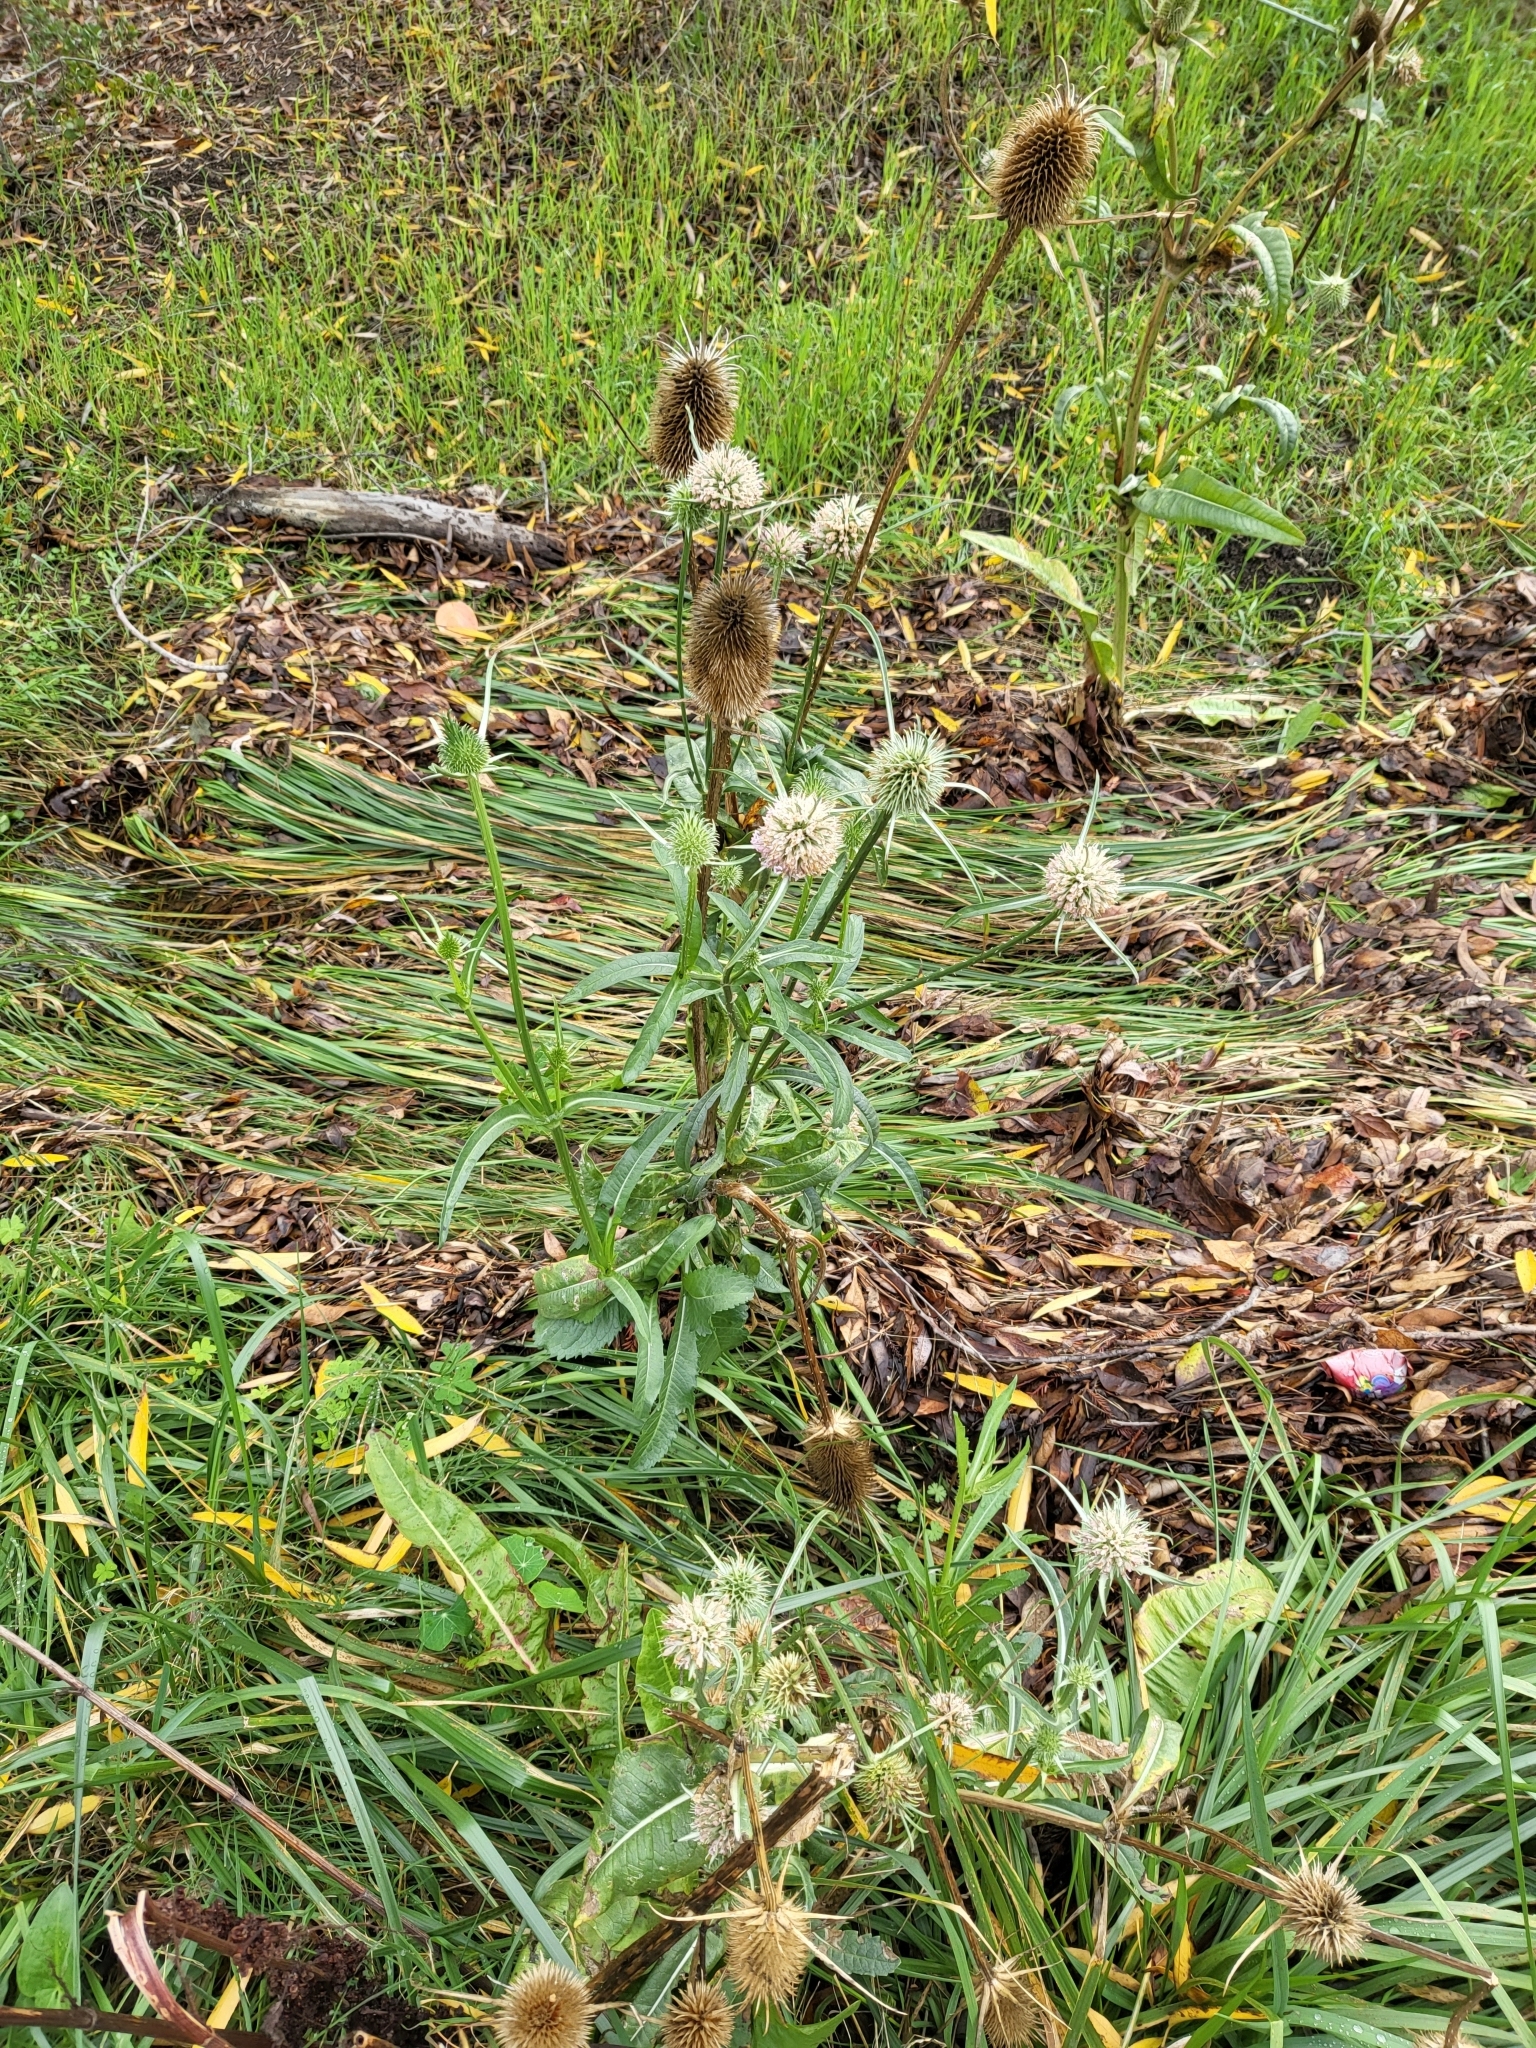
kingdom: Plantae
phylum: Tracheophyta
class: Magnoliopsida
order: Dipsacales
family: Caprifoliaceae
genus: Dipsacus
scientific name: Dipsacus sativus
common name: Fuller's teasel
